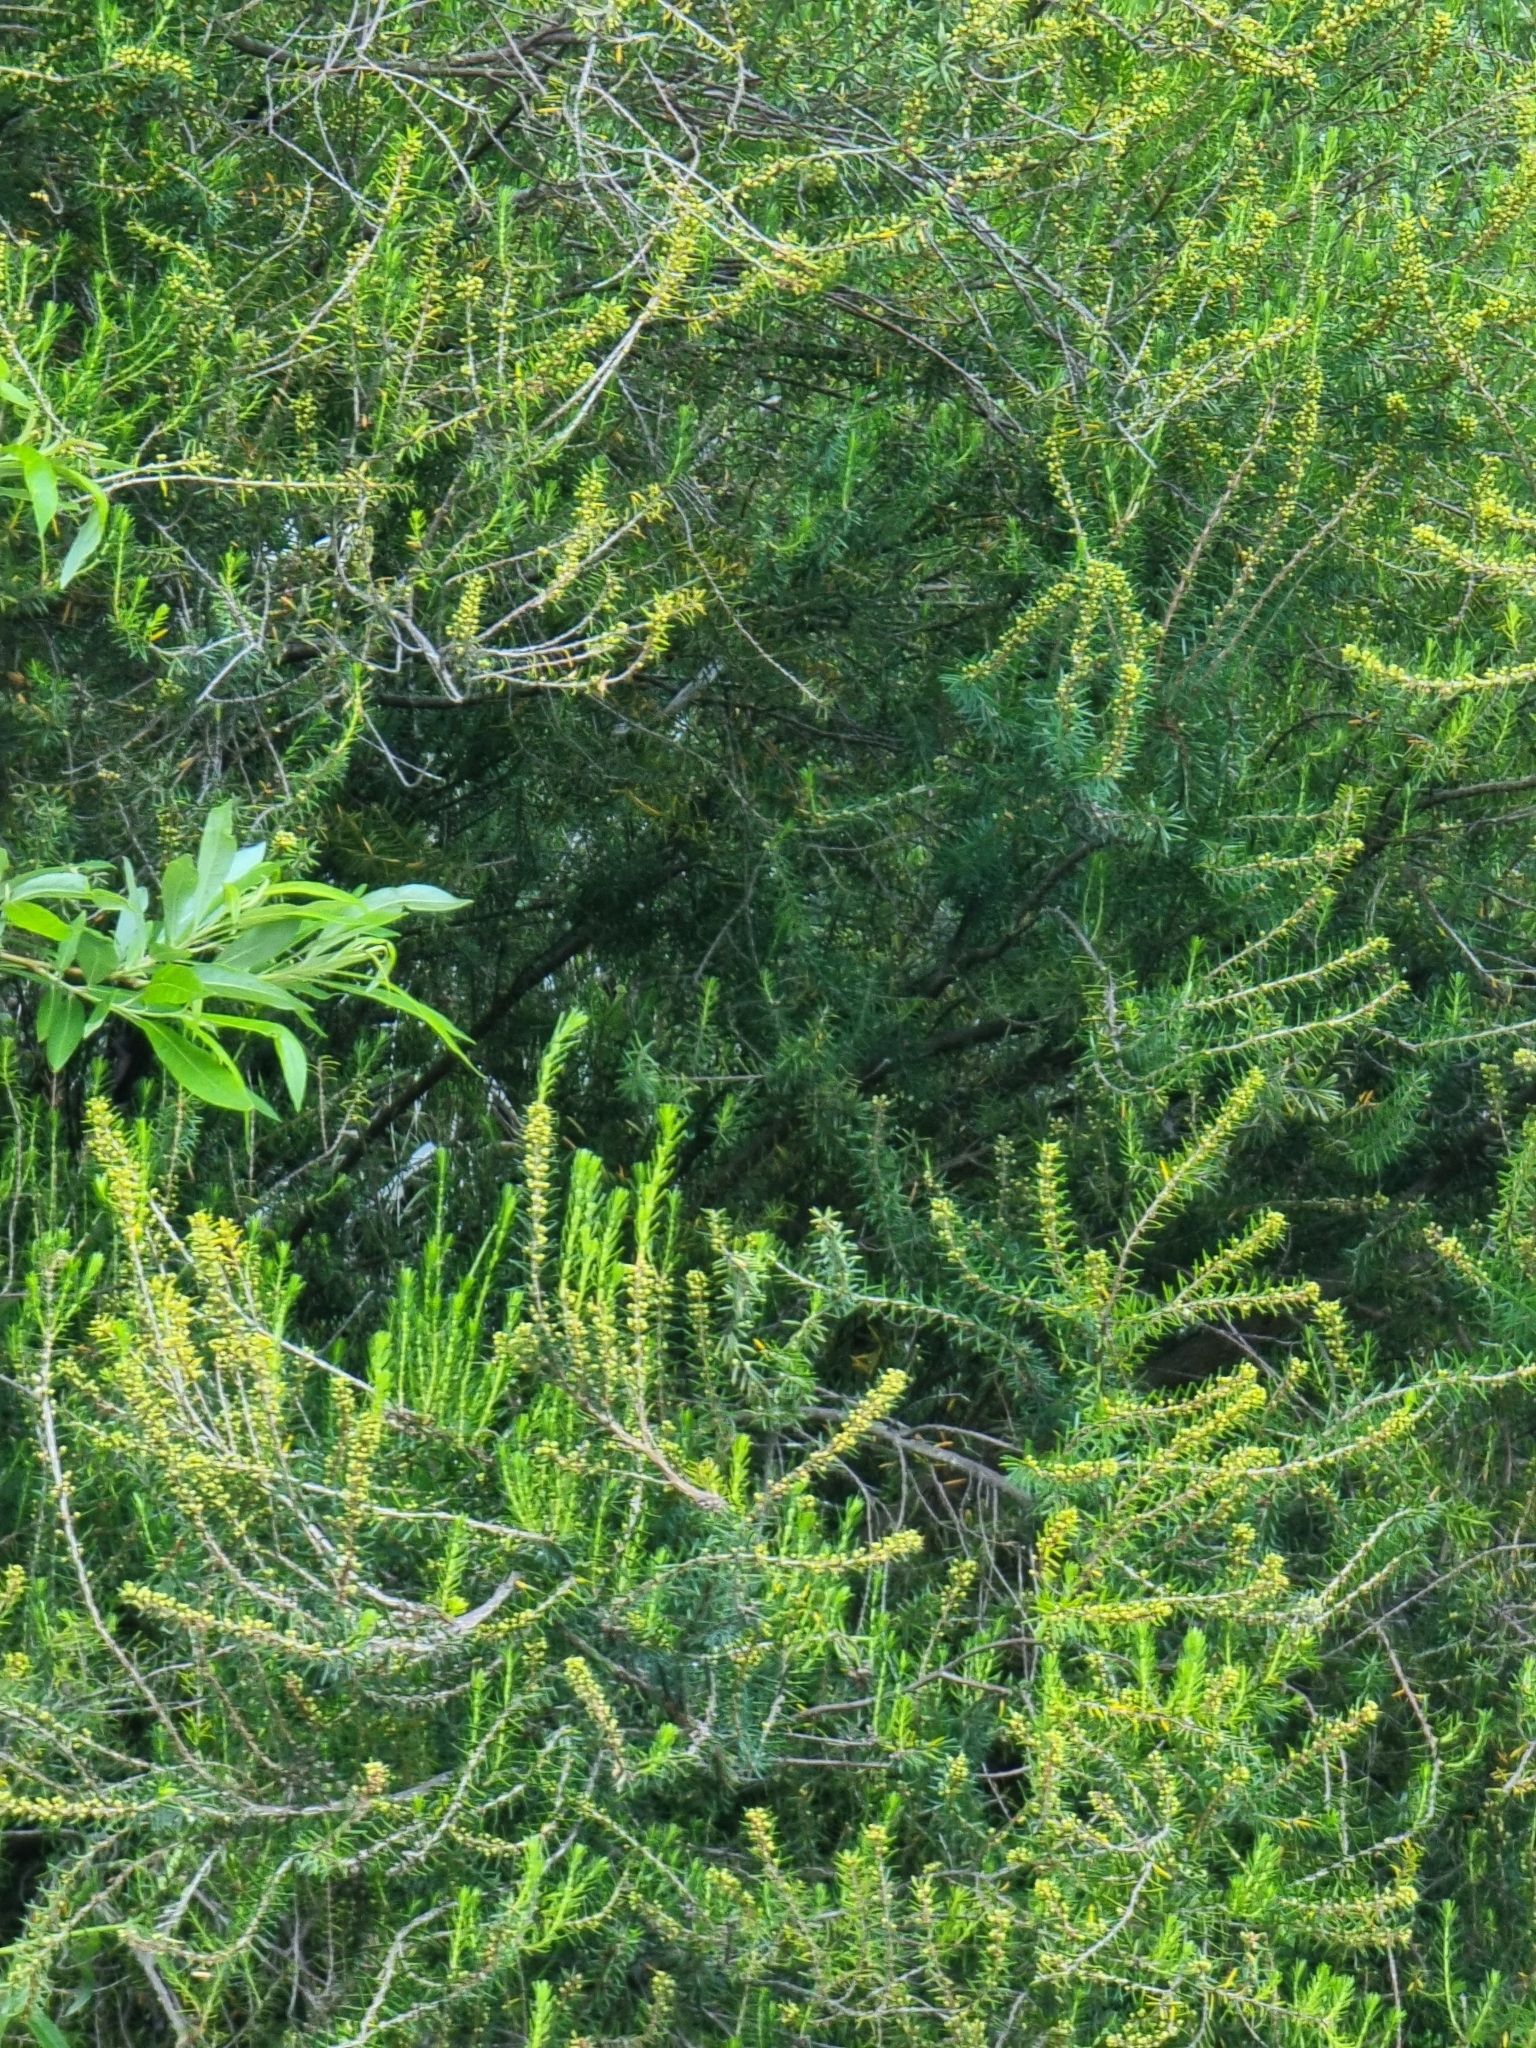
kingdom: Plantae
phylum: Tracheophyta
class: Magnoliopsida
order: Ericales
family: Ericaceae
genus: Erica
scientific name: Erica platycodon
